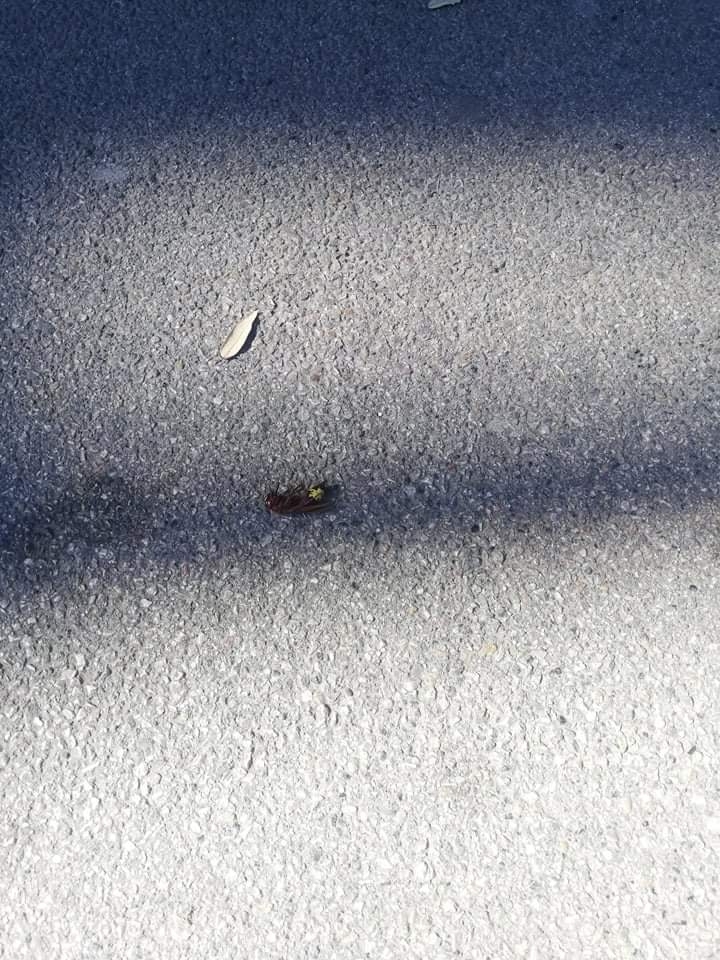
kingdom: Animalia
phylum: Arthropoda
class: Insecta
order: Hymenoptera
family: Vespidae
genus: Vespa
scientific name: Vespa orientalis
